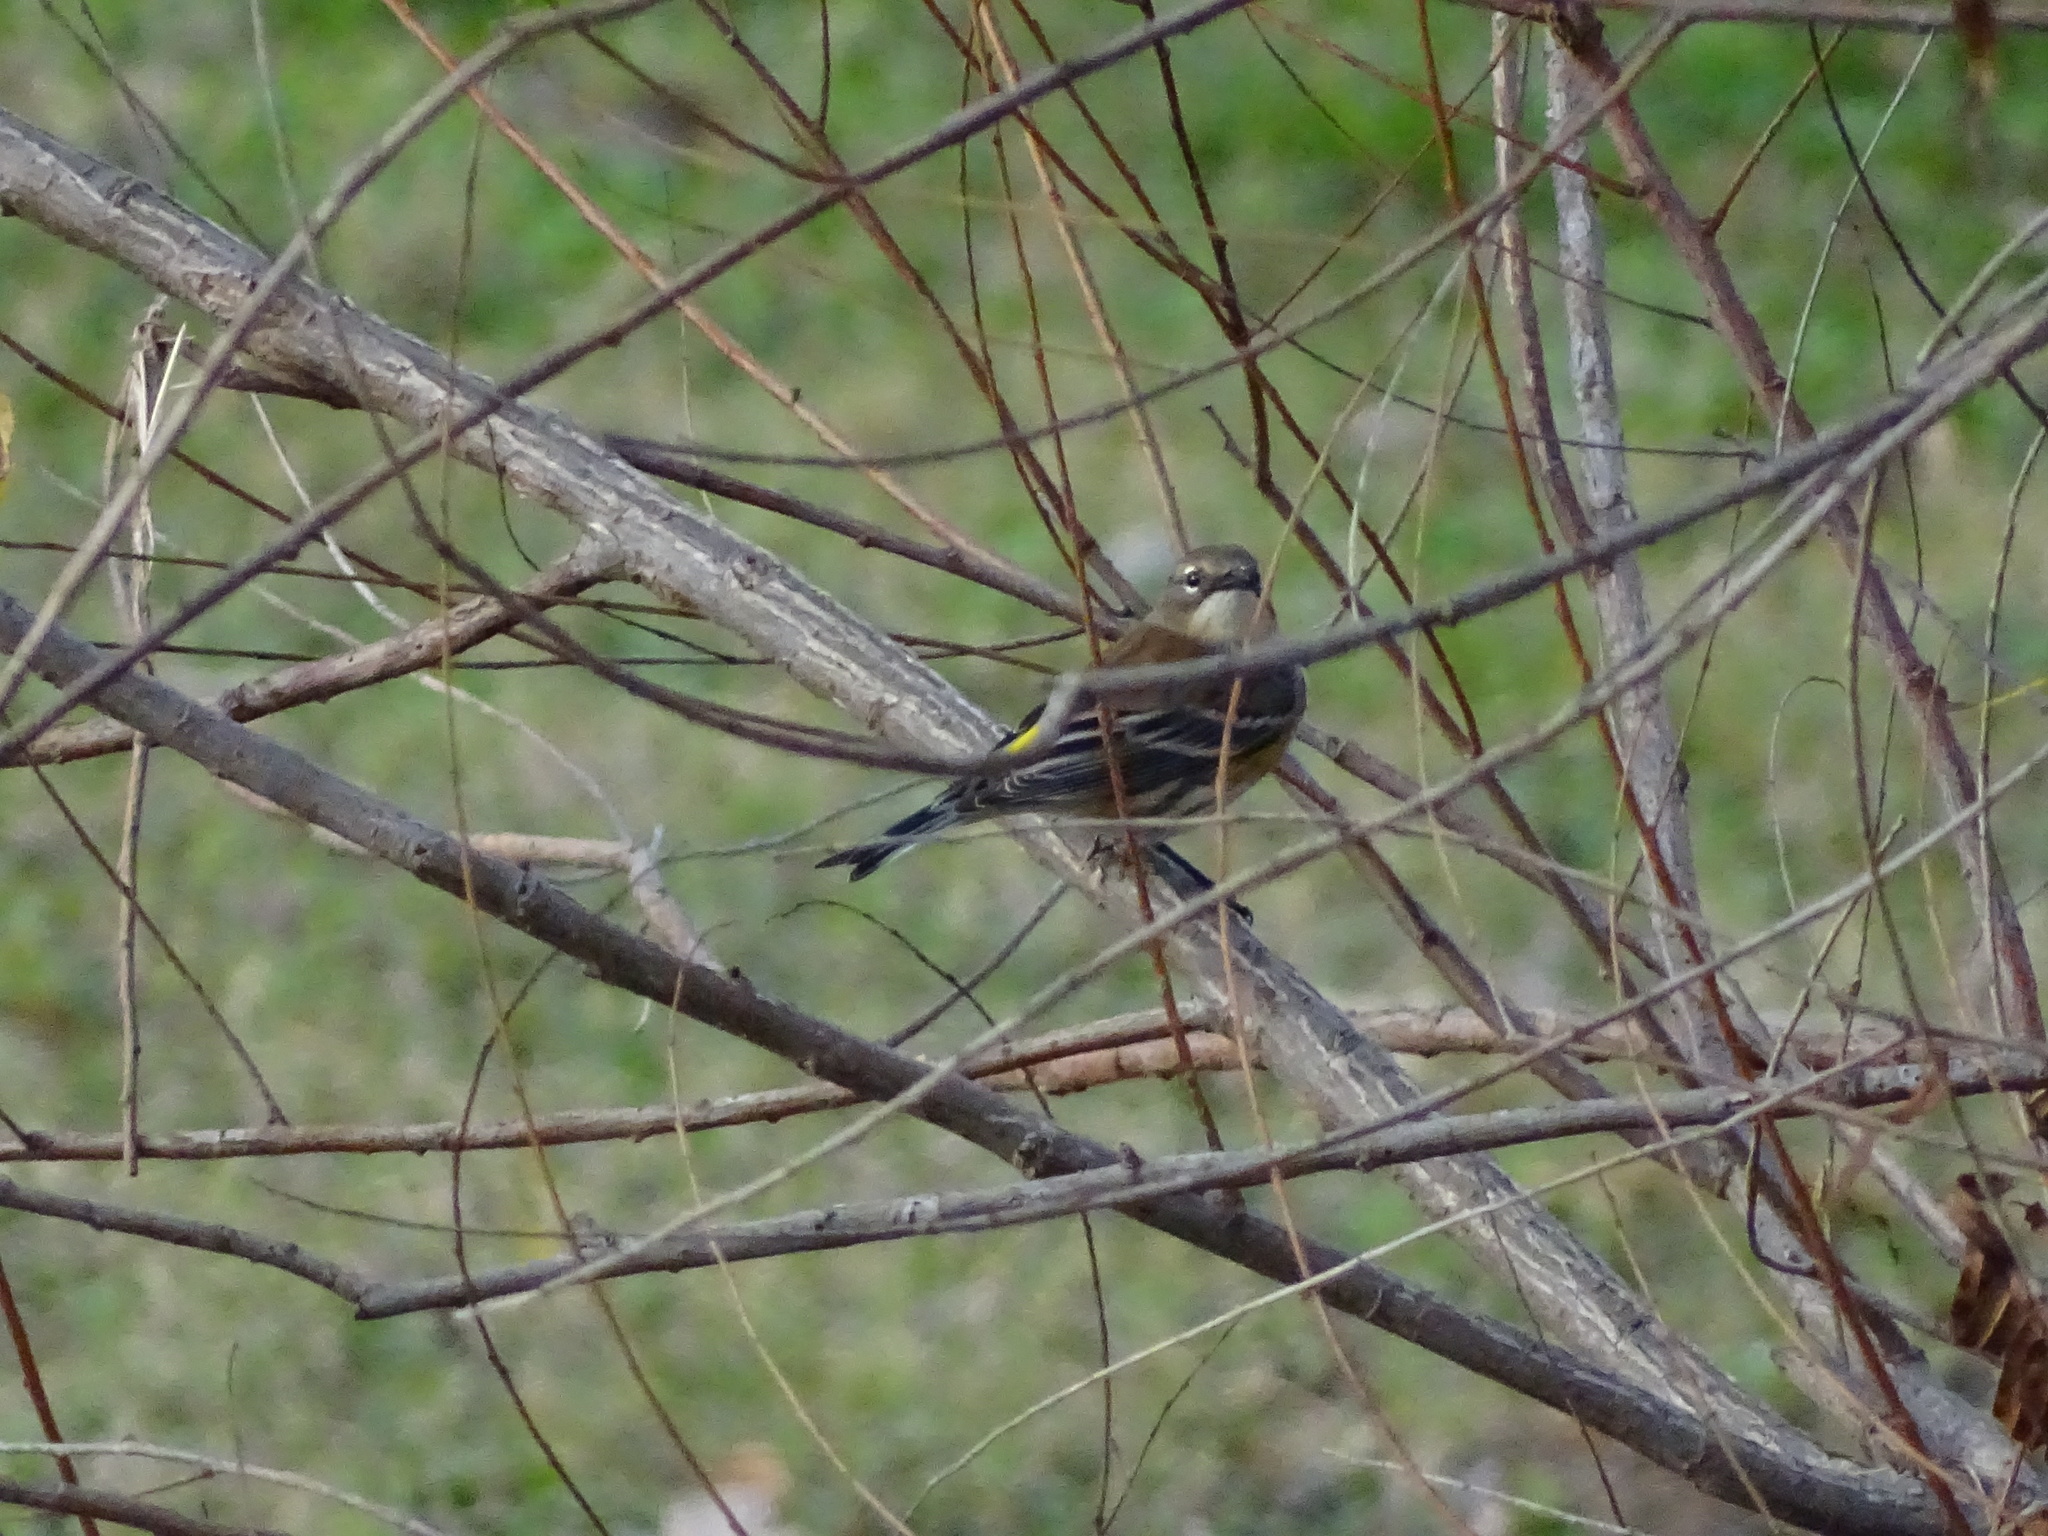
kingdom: Animalia
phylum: Chordata
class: Aves
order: Passeriformes
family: Parulidae
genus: Setophaga
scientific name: Setophaga coronata
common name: Myrtle warbler
